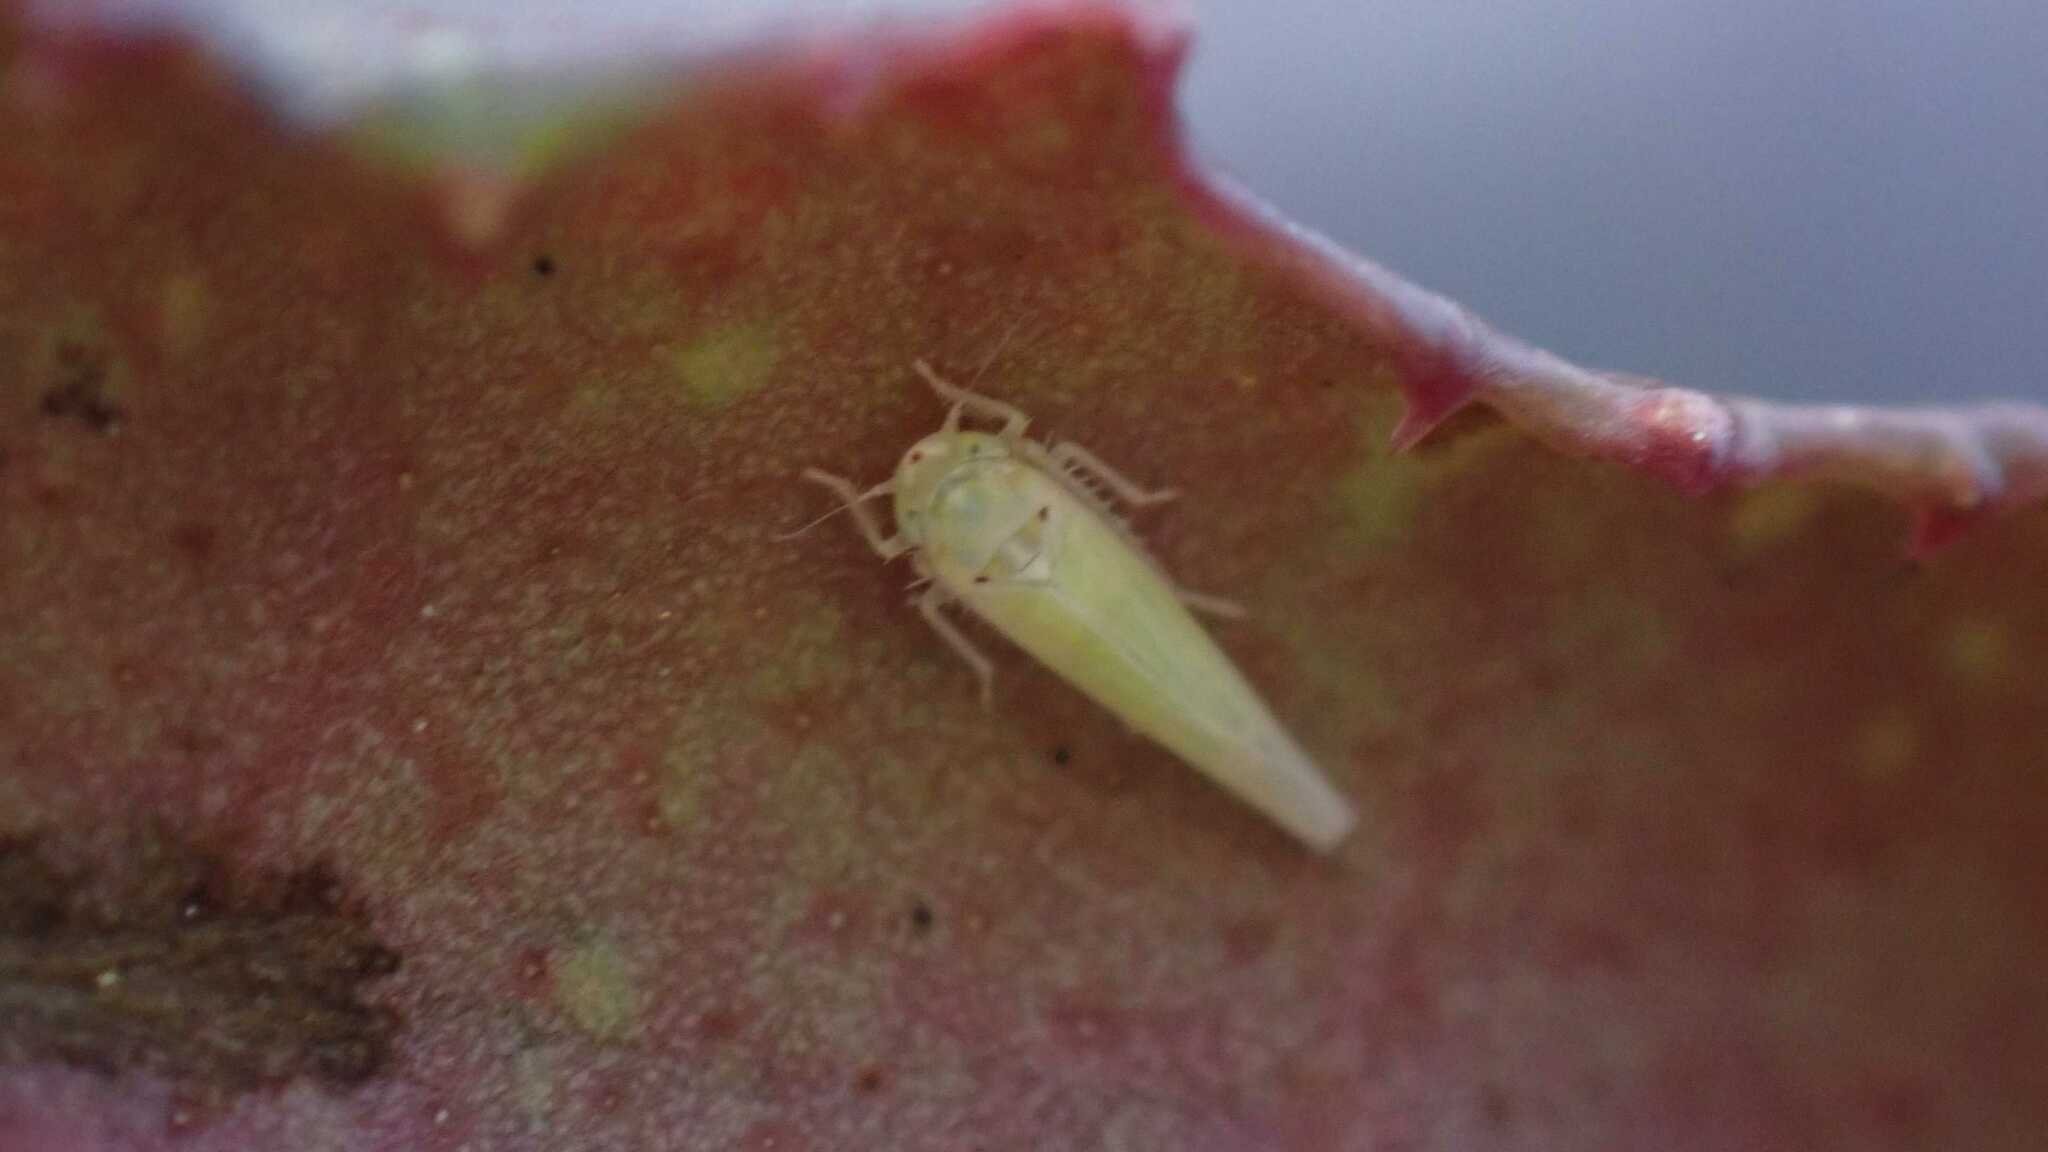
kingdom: Animalia
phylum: Arthropoda
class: Insecta
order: Hemiptera
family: Cicadellidae
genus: Zygina
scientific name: Zygina nivea
